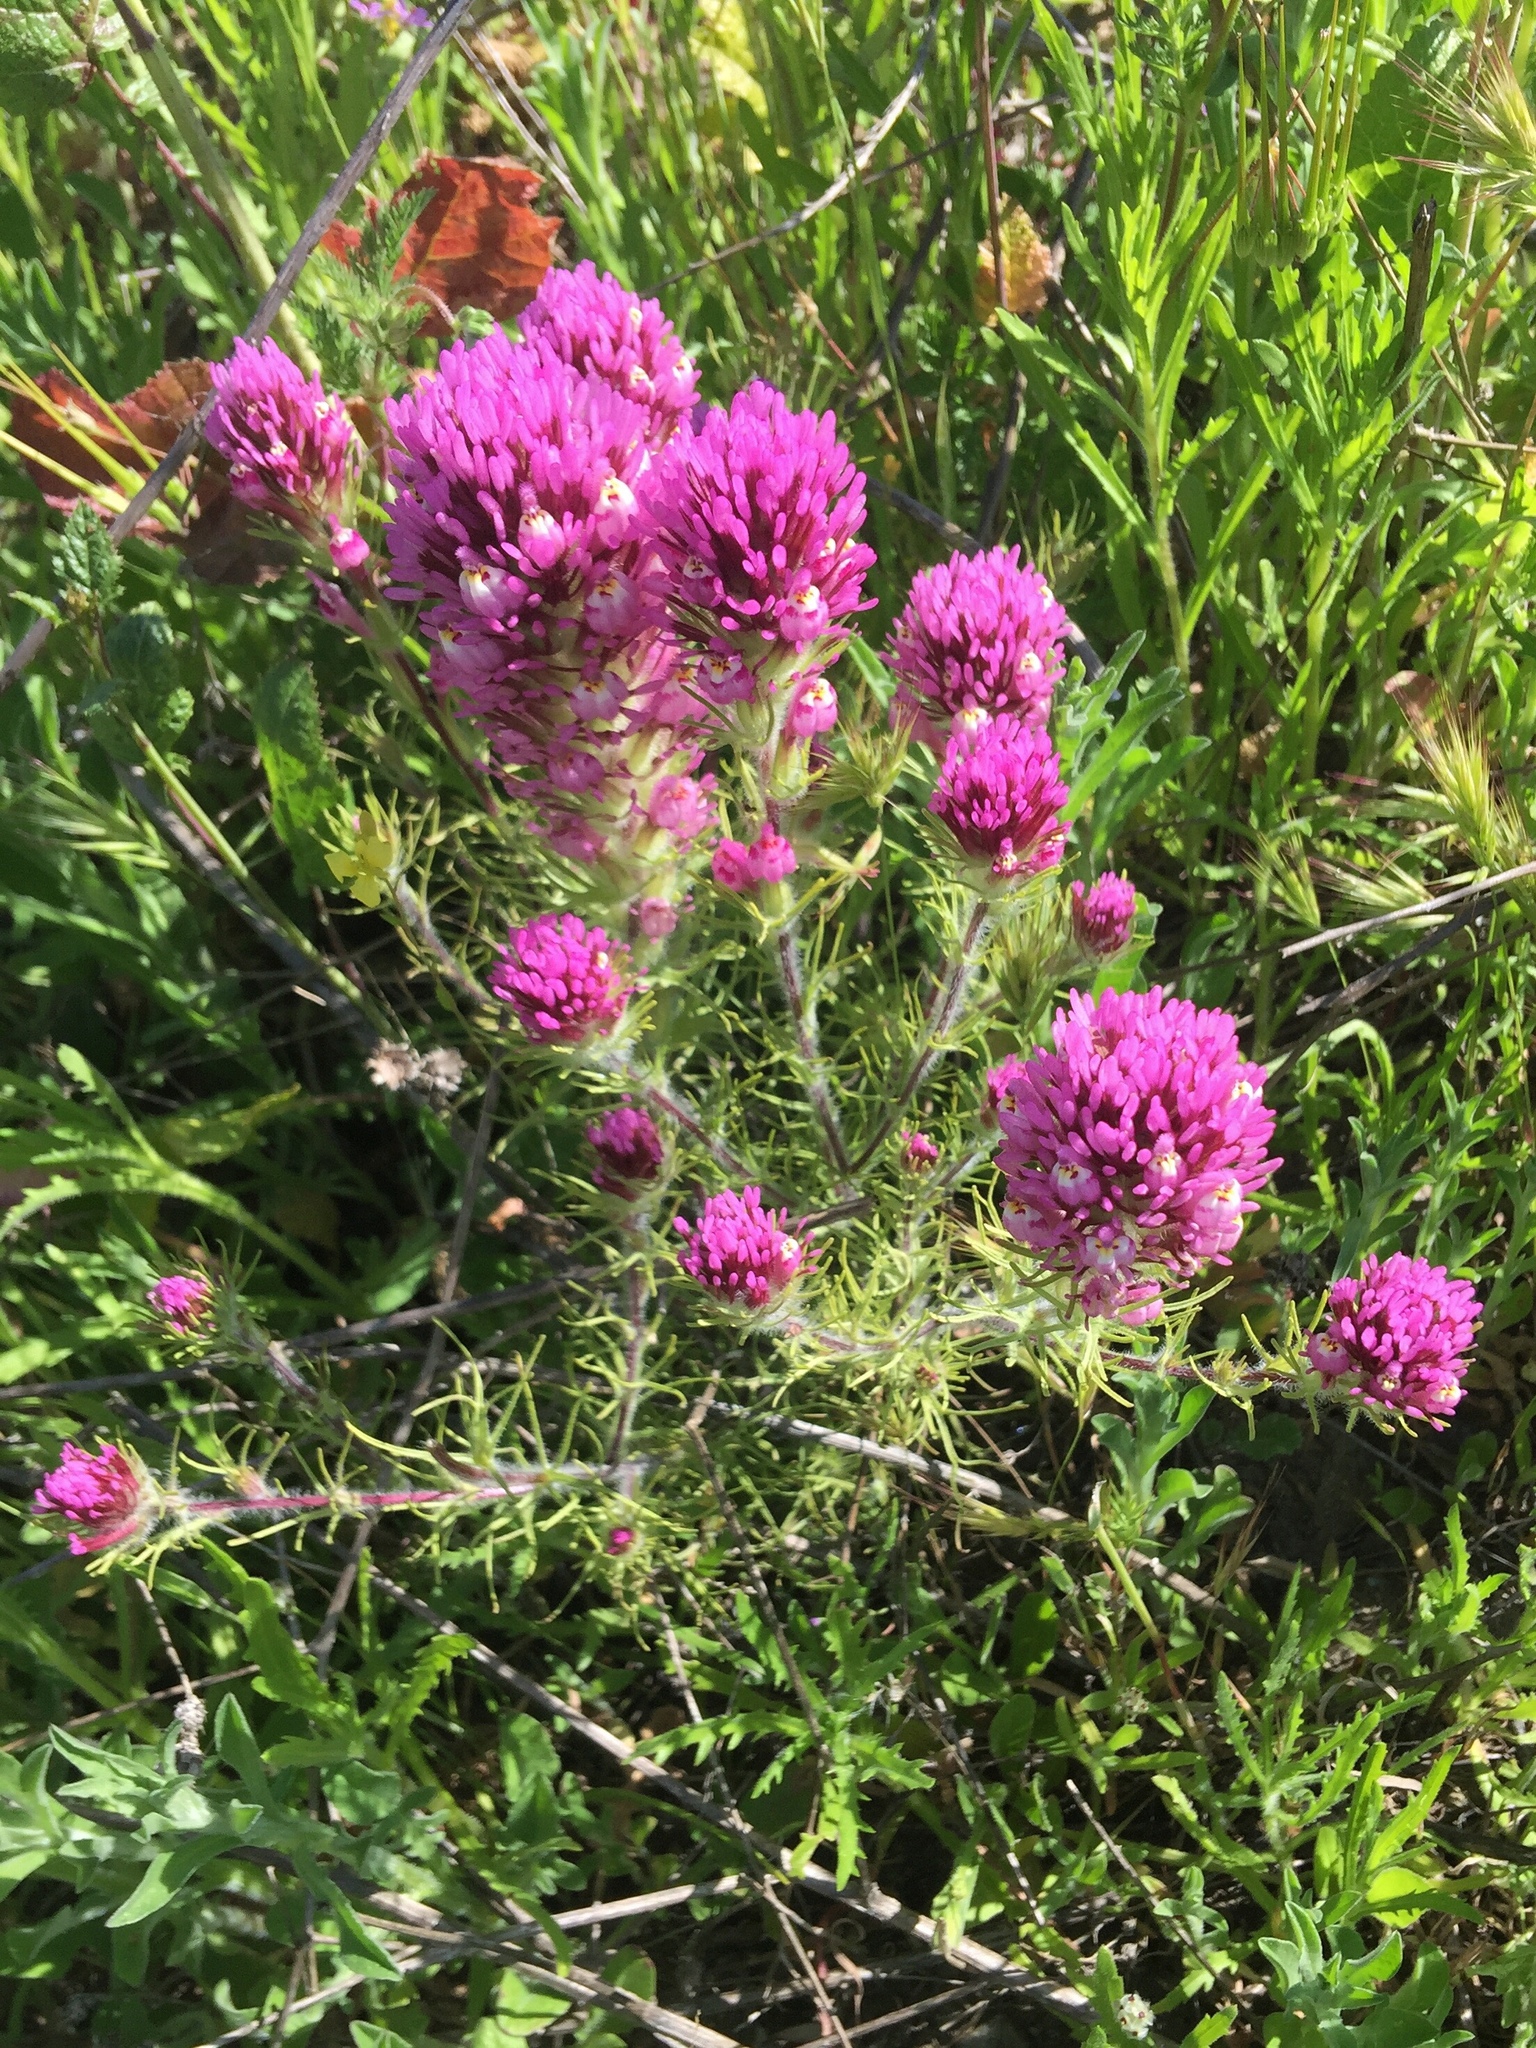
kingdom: Plantae
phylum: Tracheophyta
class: Magnoliopsida
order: Lamiales
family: Orobanchaceae
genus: Castilleja
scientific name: Castilleja exserta
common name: Purple owl-clover
